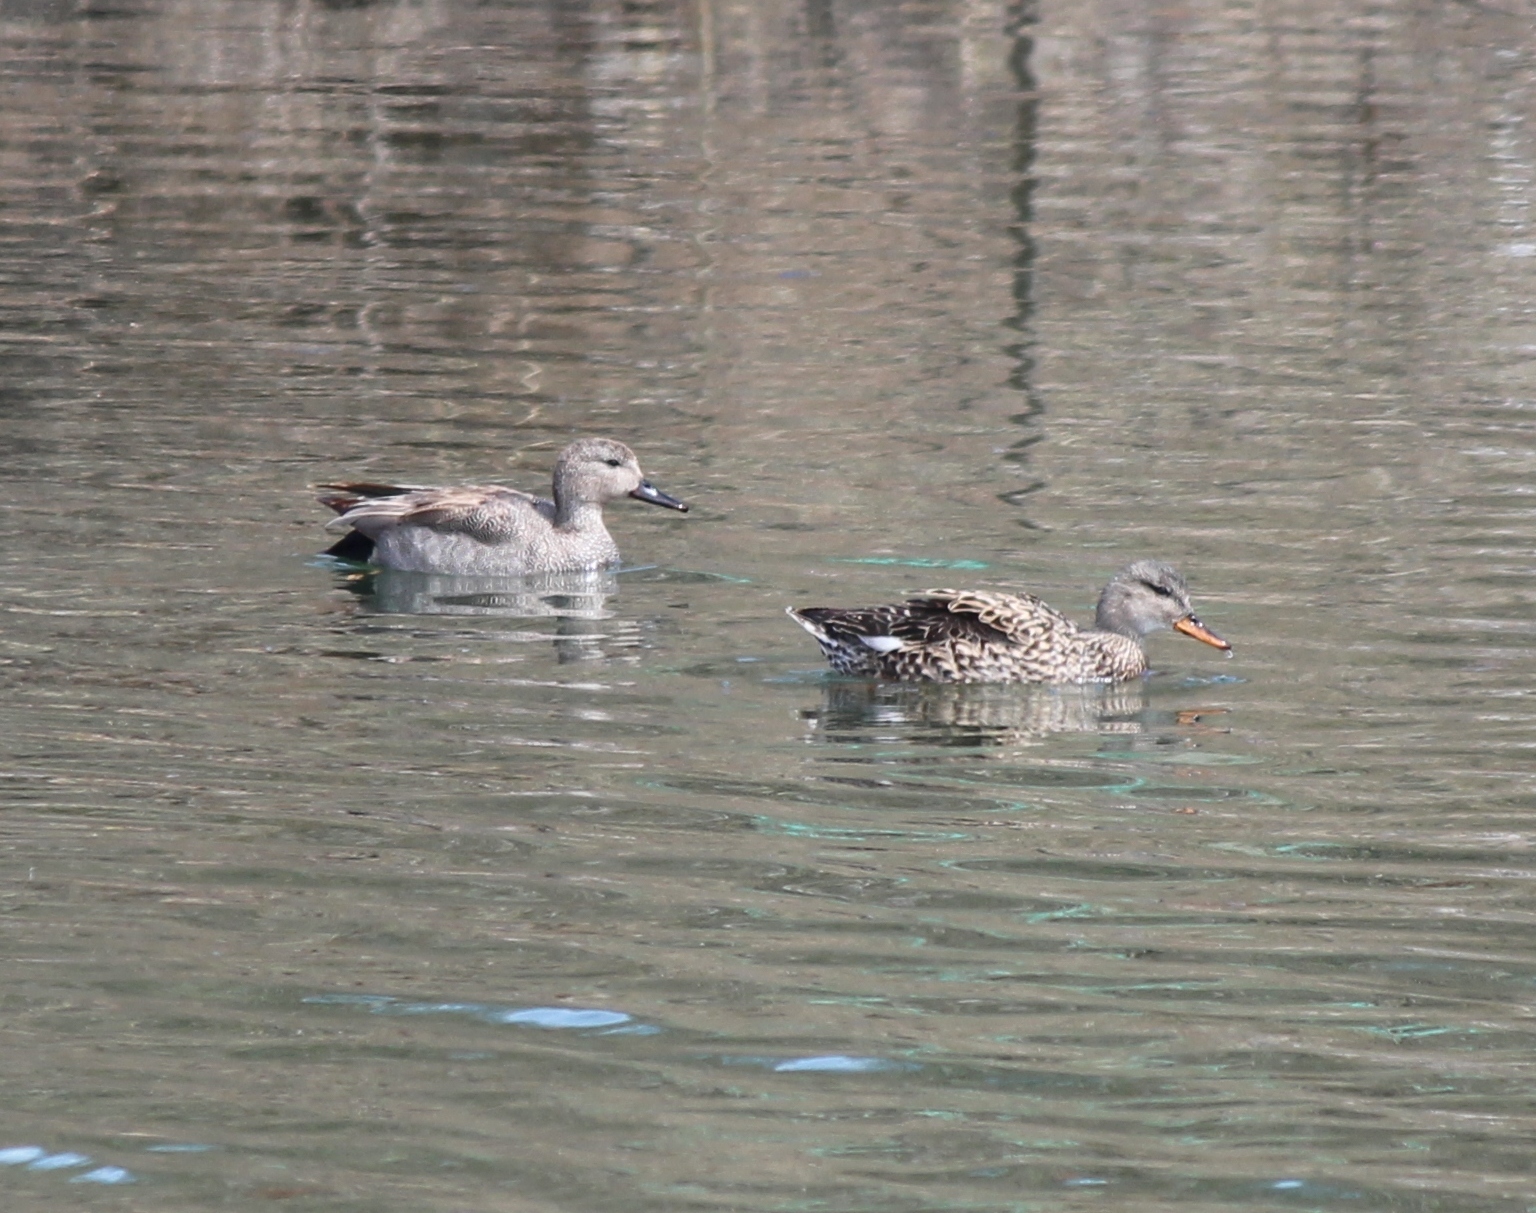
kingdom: Animalia
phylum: Chordata
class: Aves
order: Anseriformes
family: Anatidae
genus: Mareca
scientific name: Mareca strepera
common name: Gadwall
